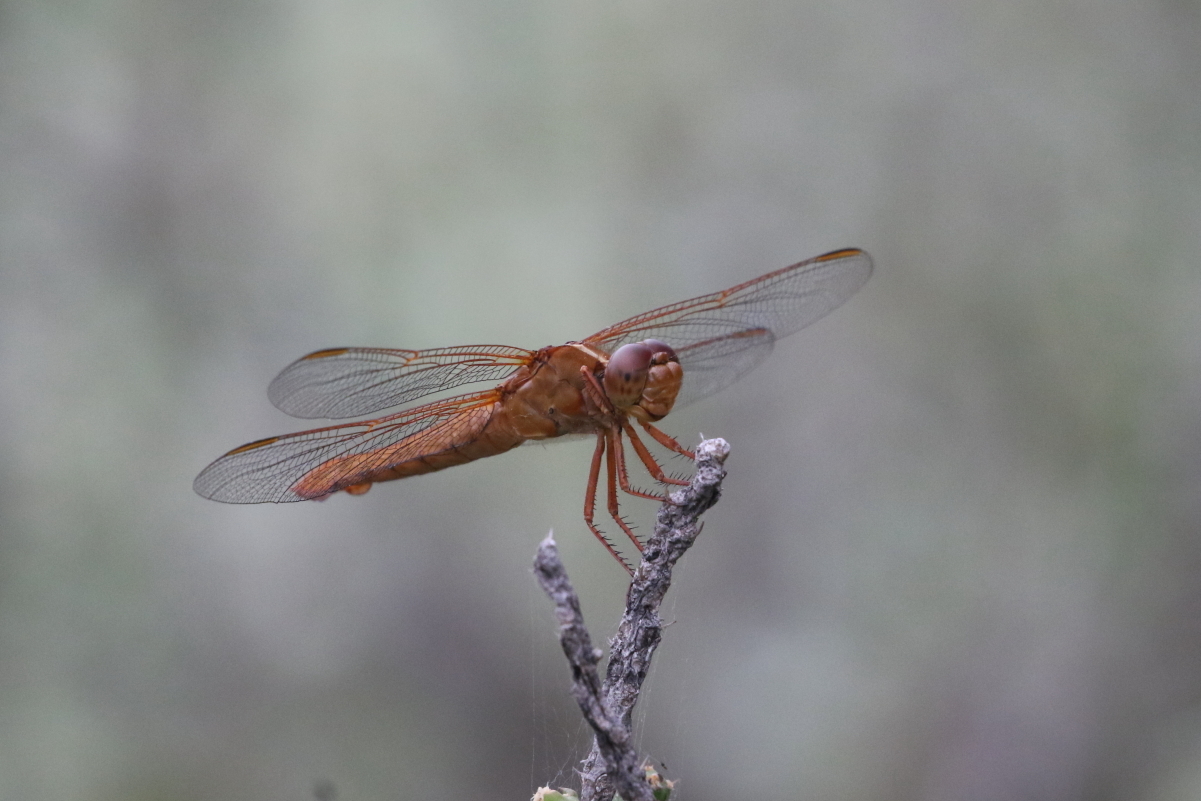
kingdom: Animalia
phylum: Arthropoda
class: Insecta
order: Odonata
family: Libellulidae
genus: Libellula
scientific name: Libellula croceipennis
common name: Neon skimmer
